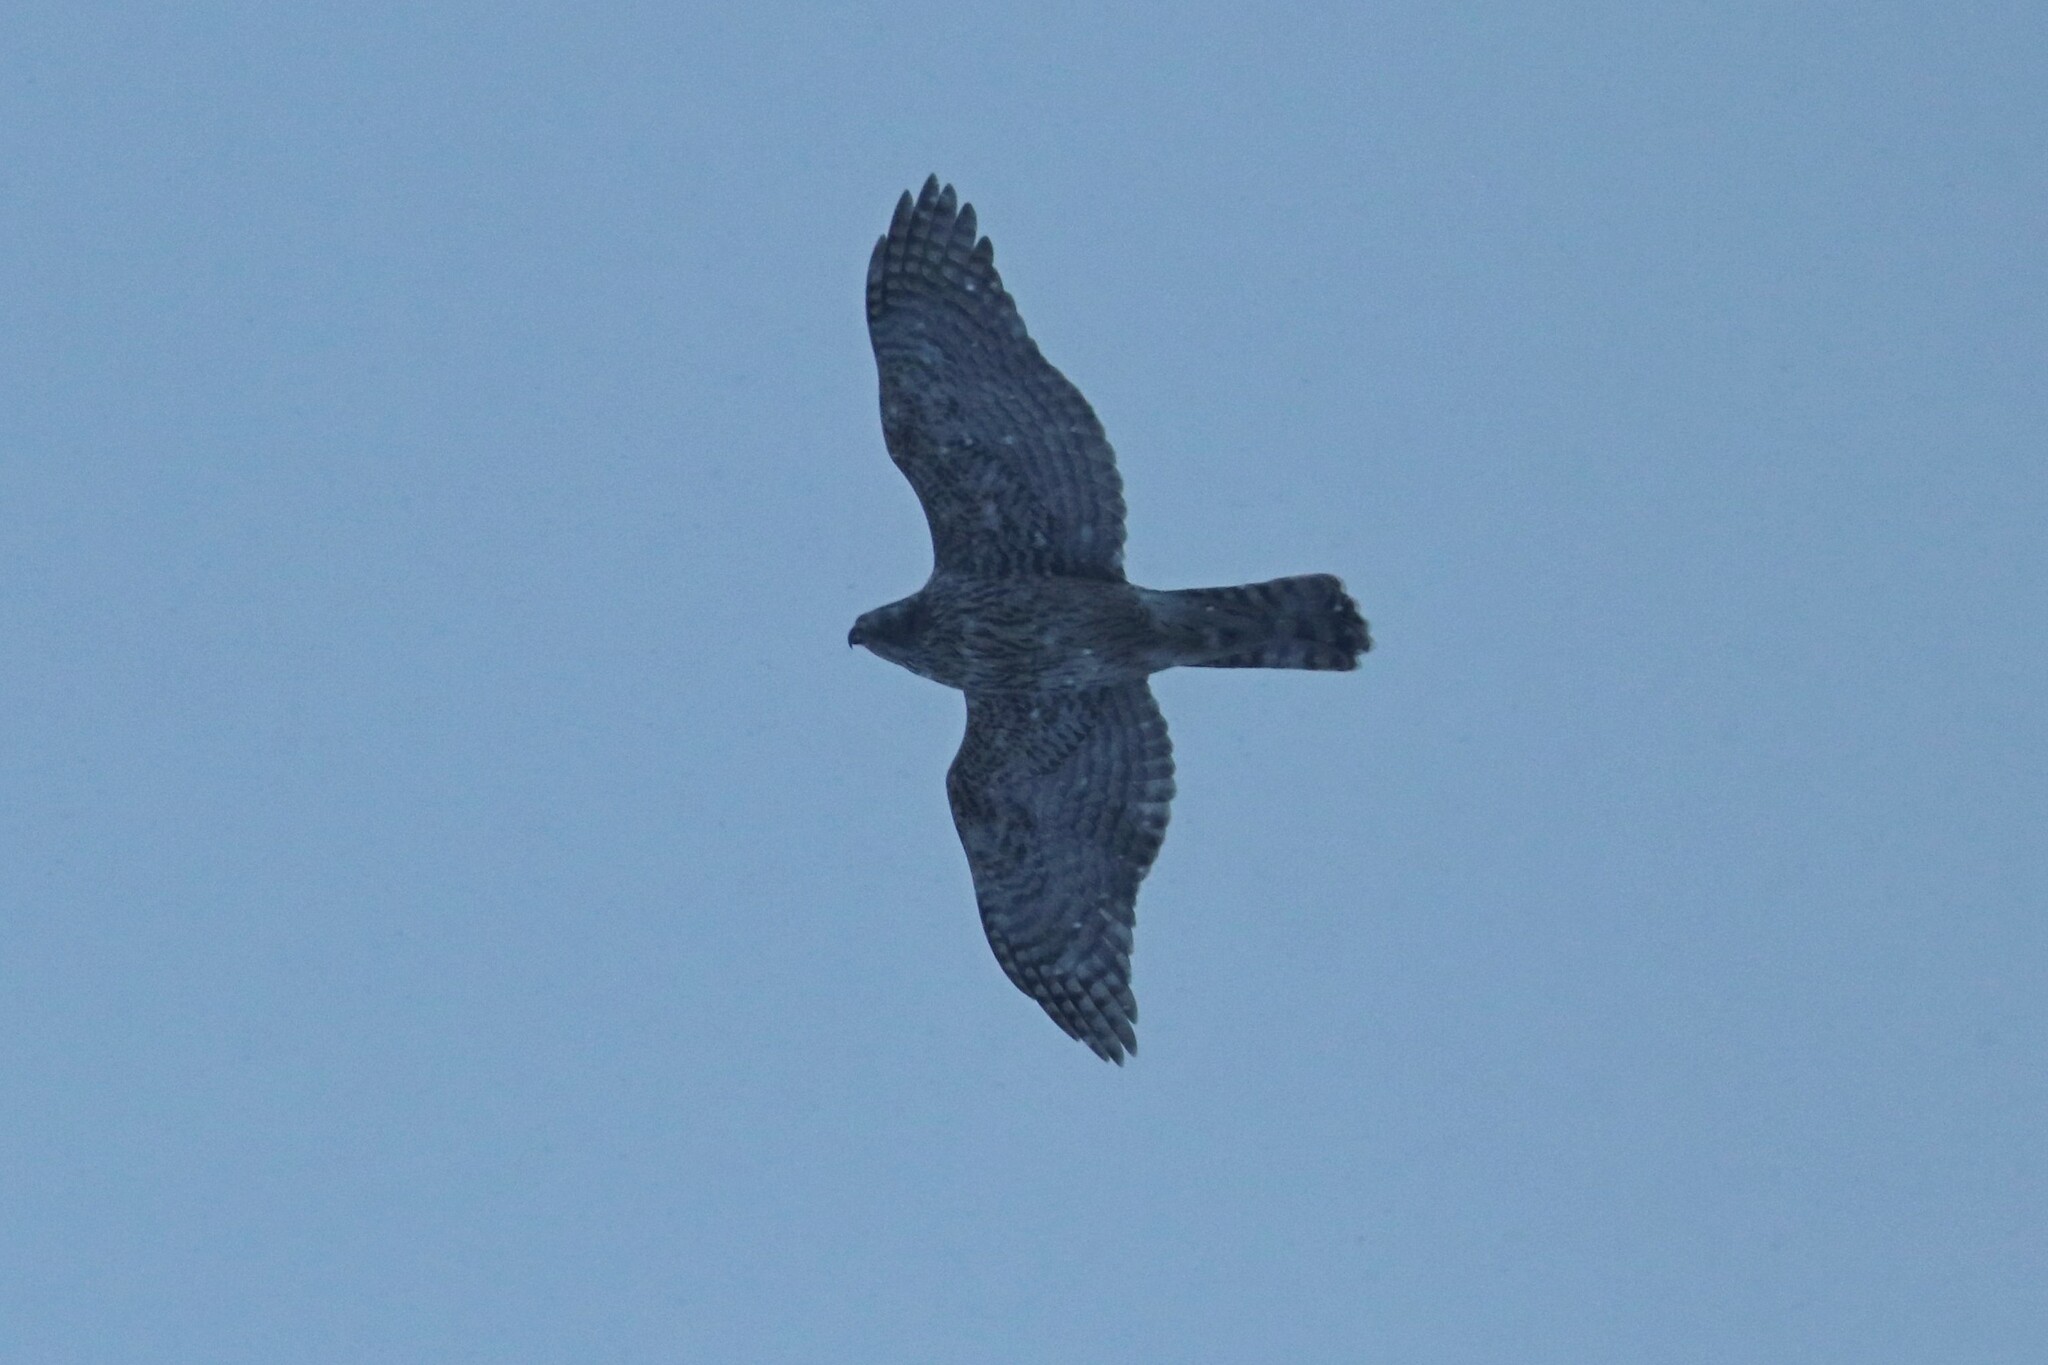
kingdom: Animalia
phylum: Chordata
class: Aves
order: Accipitriformes
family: Accipitridae
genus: Accipiter
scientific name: Accipiter gentilis
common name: Northern goshawk
